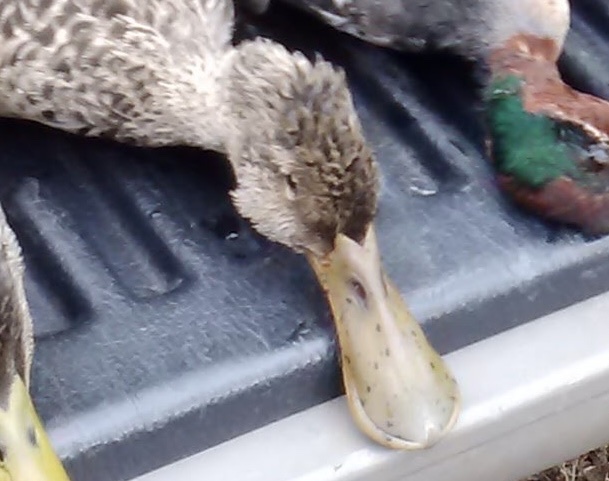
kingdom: Animalia
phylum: Chordata
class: Aves
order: Anseriformes
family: Anatidae
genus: Spatula
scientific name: Spatula clypeata
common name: Northern shoveler
